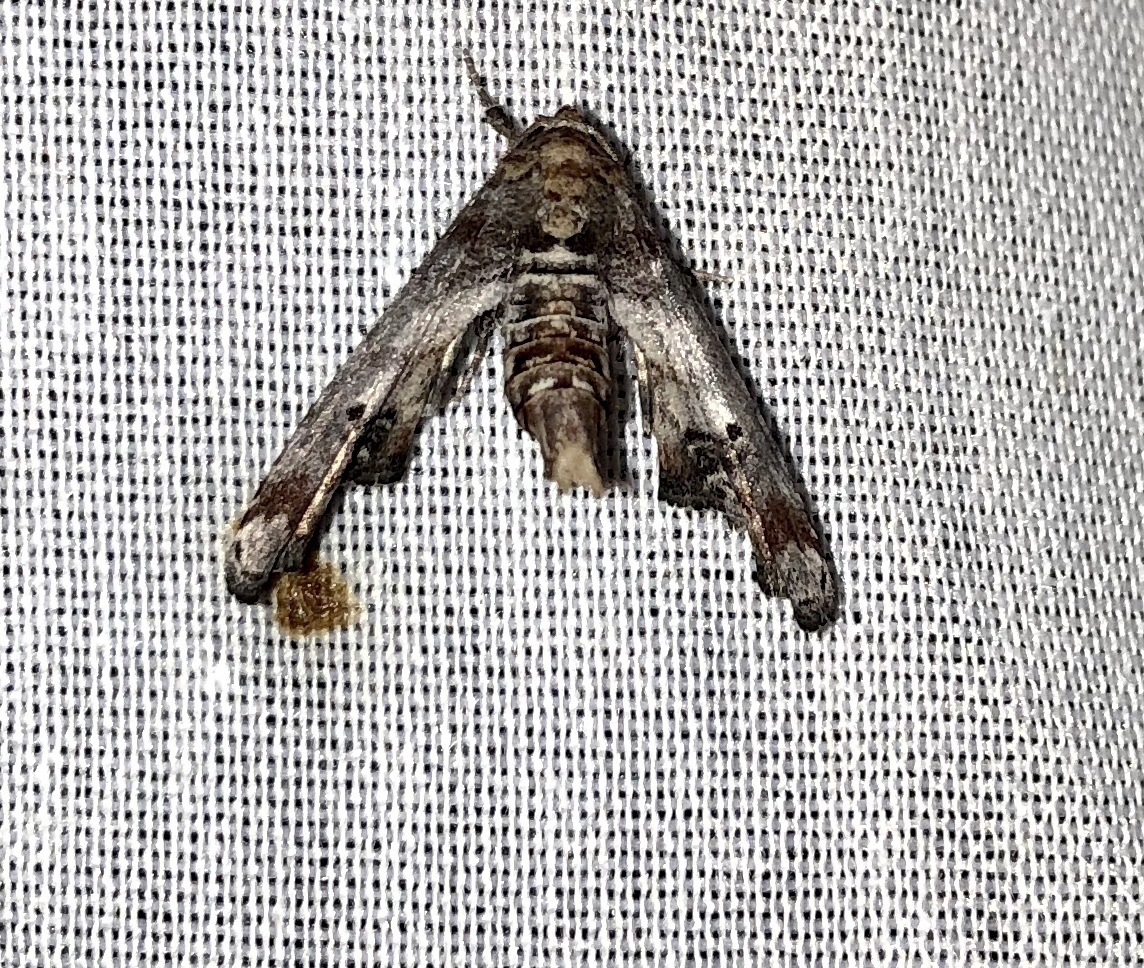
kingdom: Animalia
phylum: Arthropoda
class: Insecta
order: Lepidoptera
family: Euteliidae
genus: Marathyssa
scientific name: Marathyssa inficita
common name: Dark marathyssa moth
